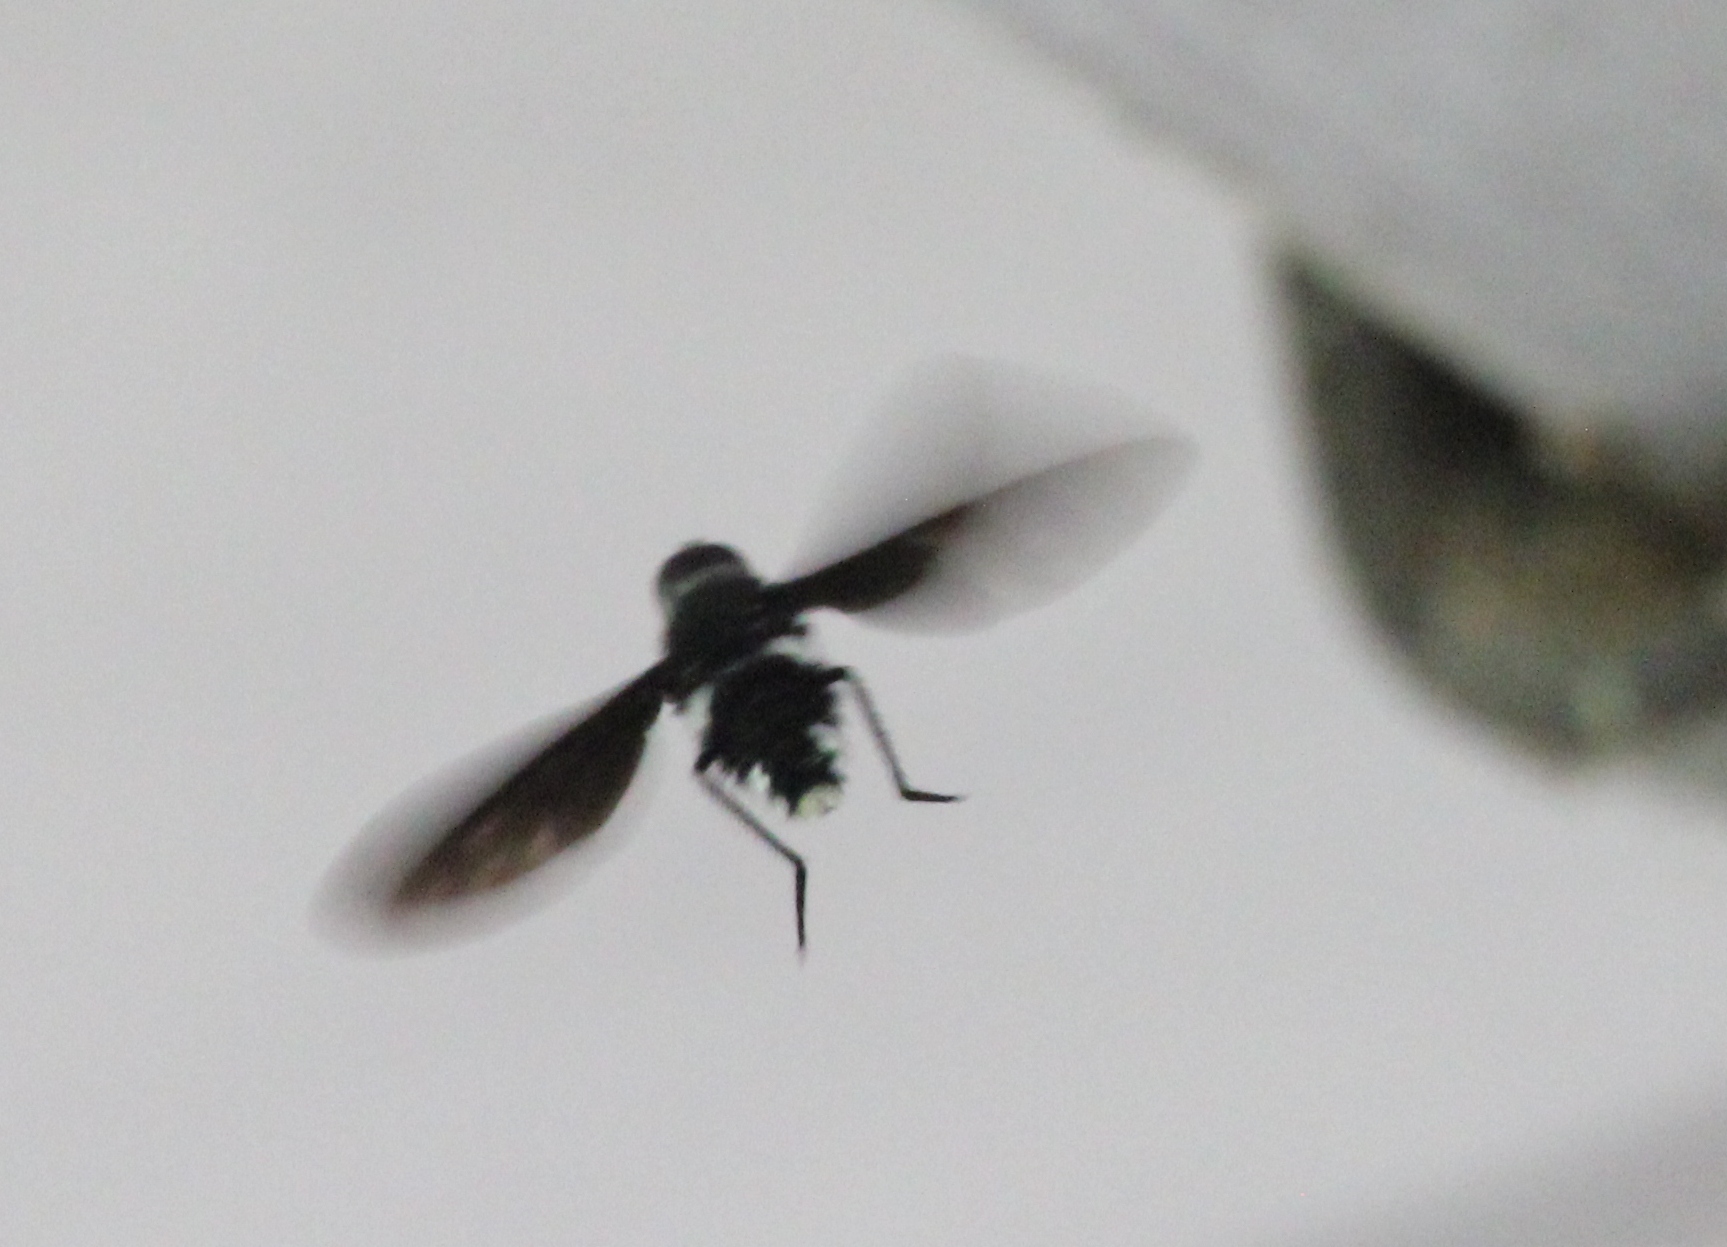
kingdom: Animalia
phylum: Arthropoda
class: Insecta
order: Diptera
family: Bombyliidae
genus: Brachyanax
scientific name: Brachyanax aterrimus
